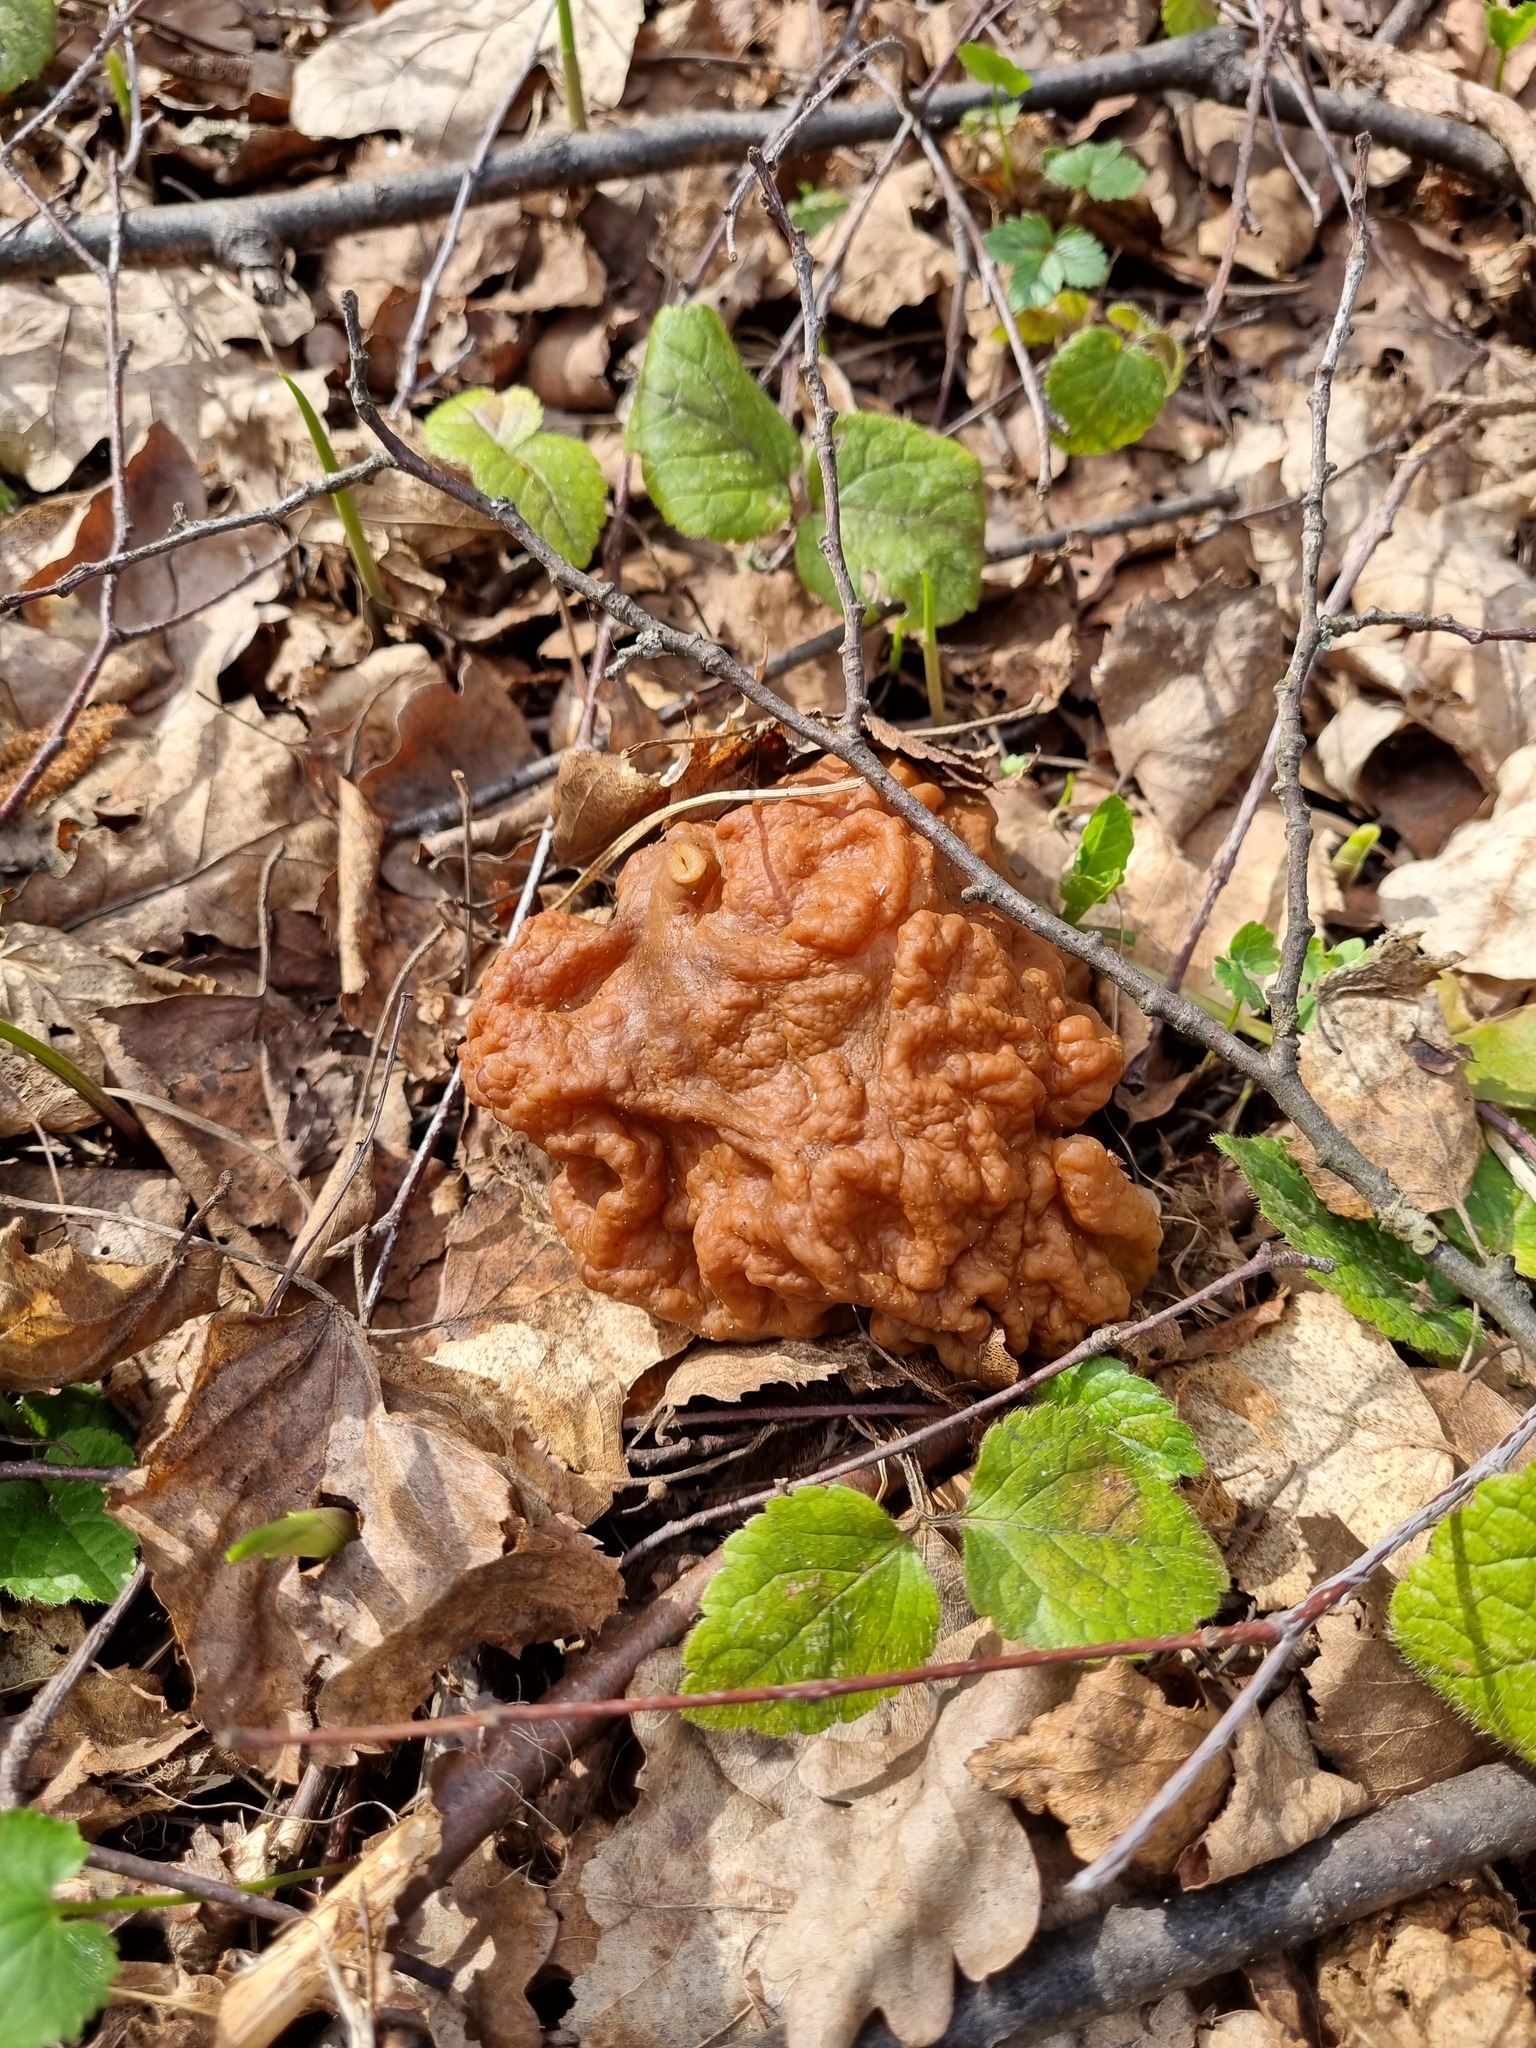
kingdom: Fungi
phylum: Ascomycota
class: Pezizomycetes
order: Pezizales
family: Discinaceae
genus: Gyromitra
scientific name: Gyromitra gigas
